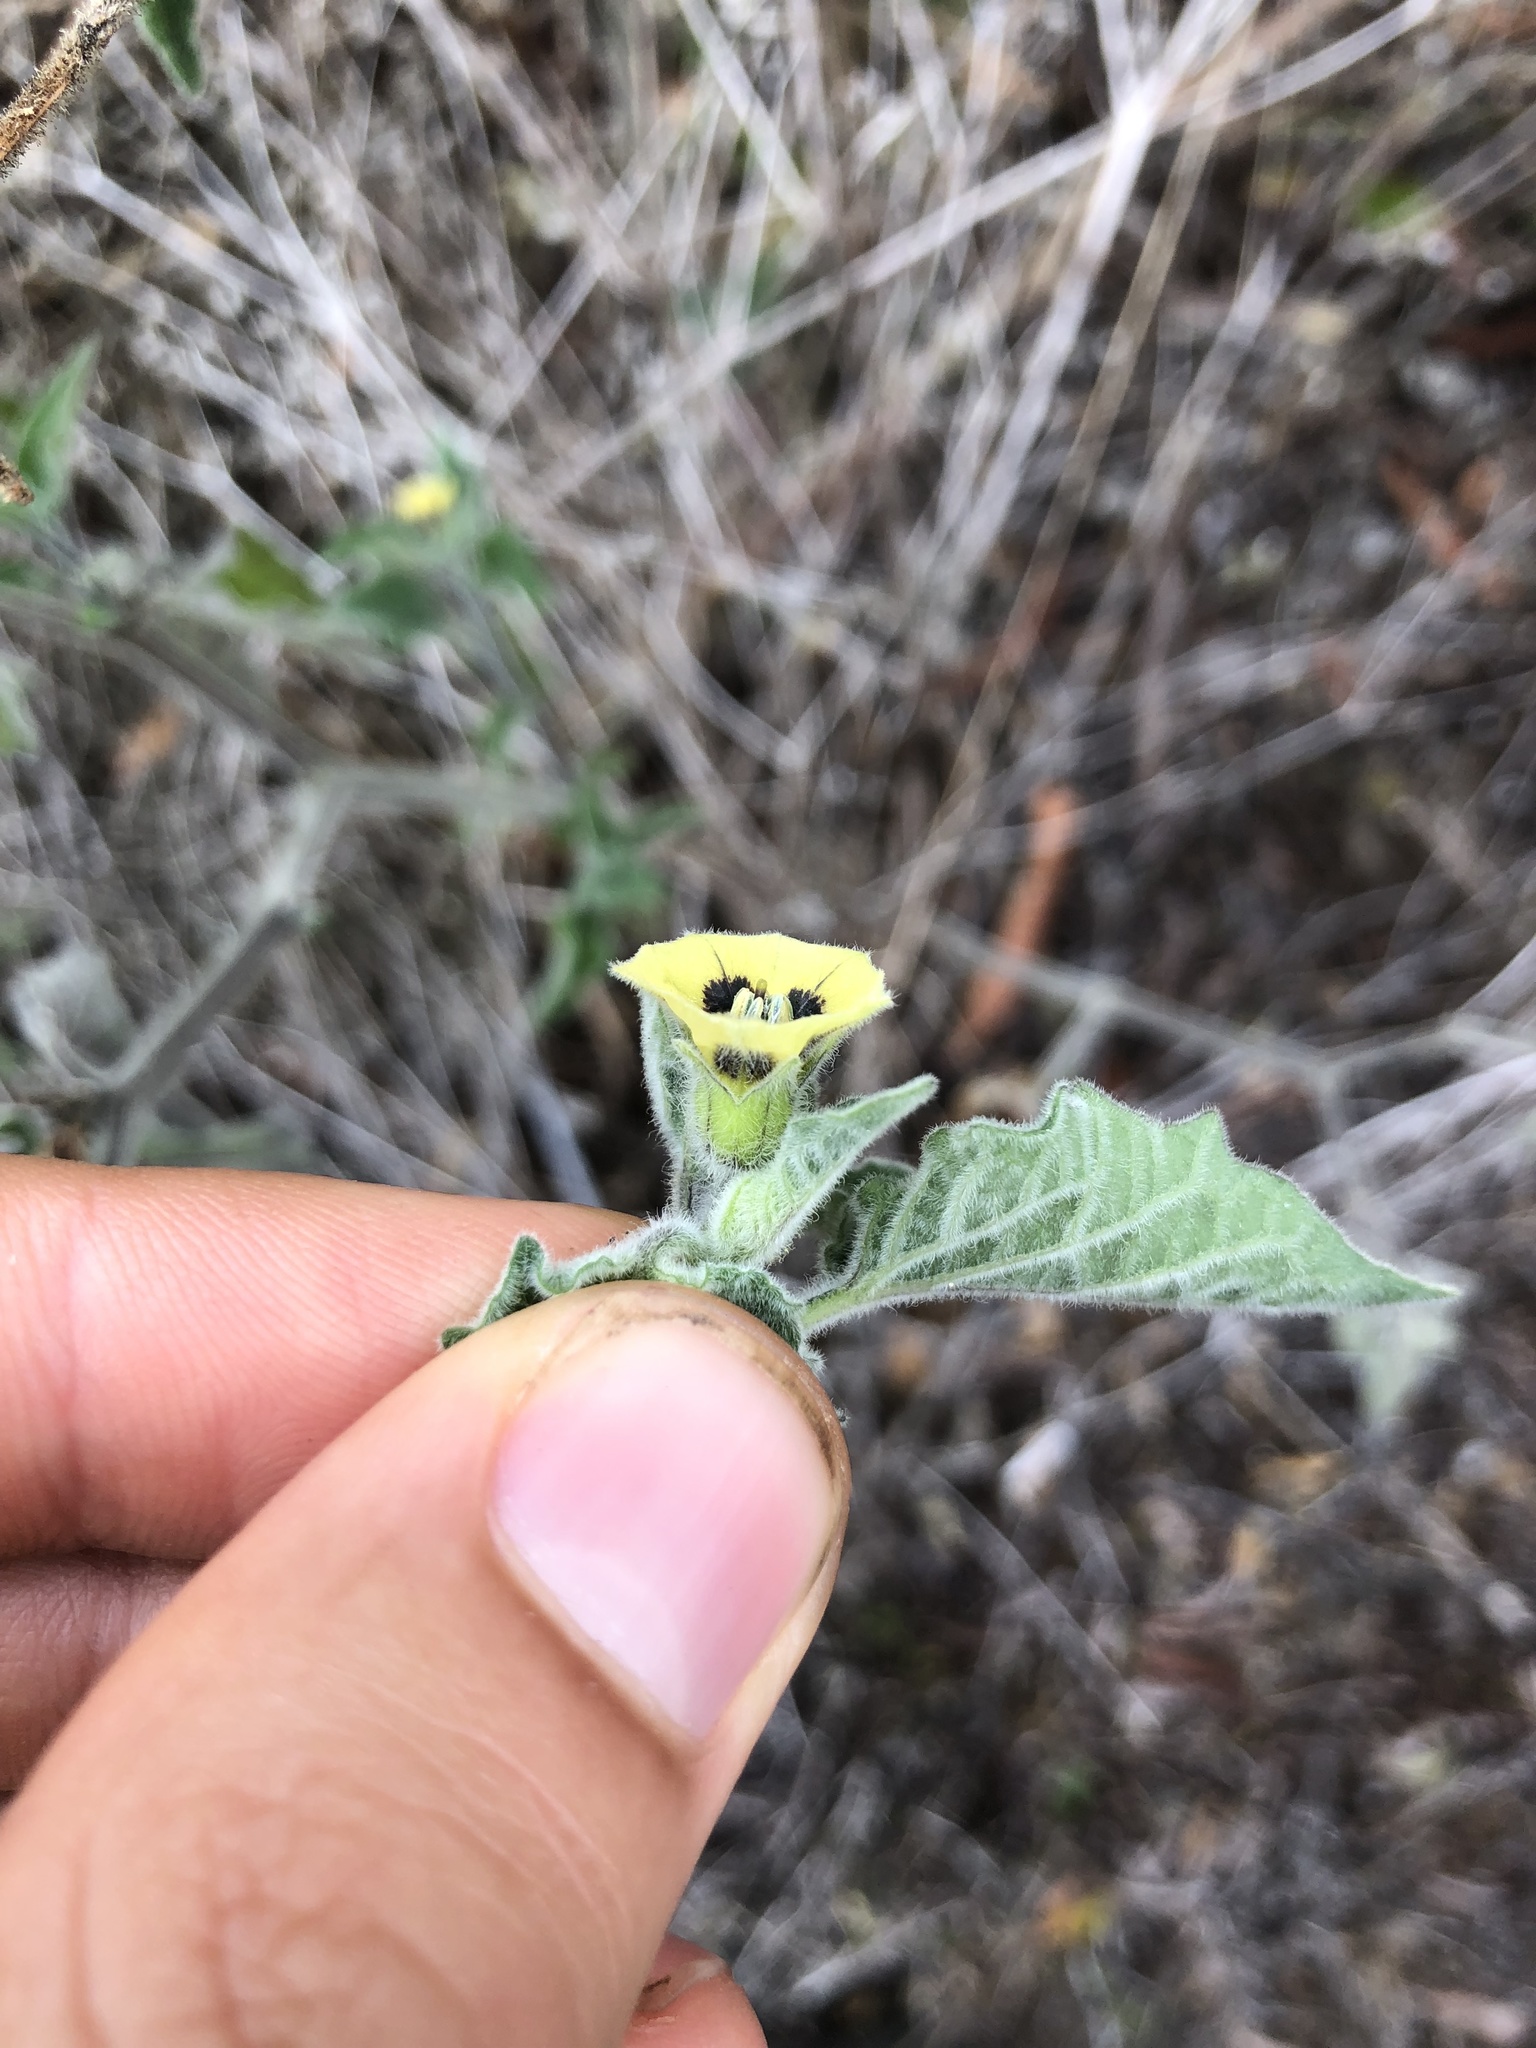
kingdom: Plantae
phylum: Tracheophyta
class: Magnoliopsida
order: Solanales
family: Solanaceae
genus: Physalis
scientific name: Physalis peruviana
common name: Cape-gooseberry
